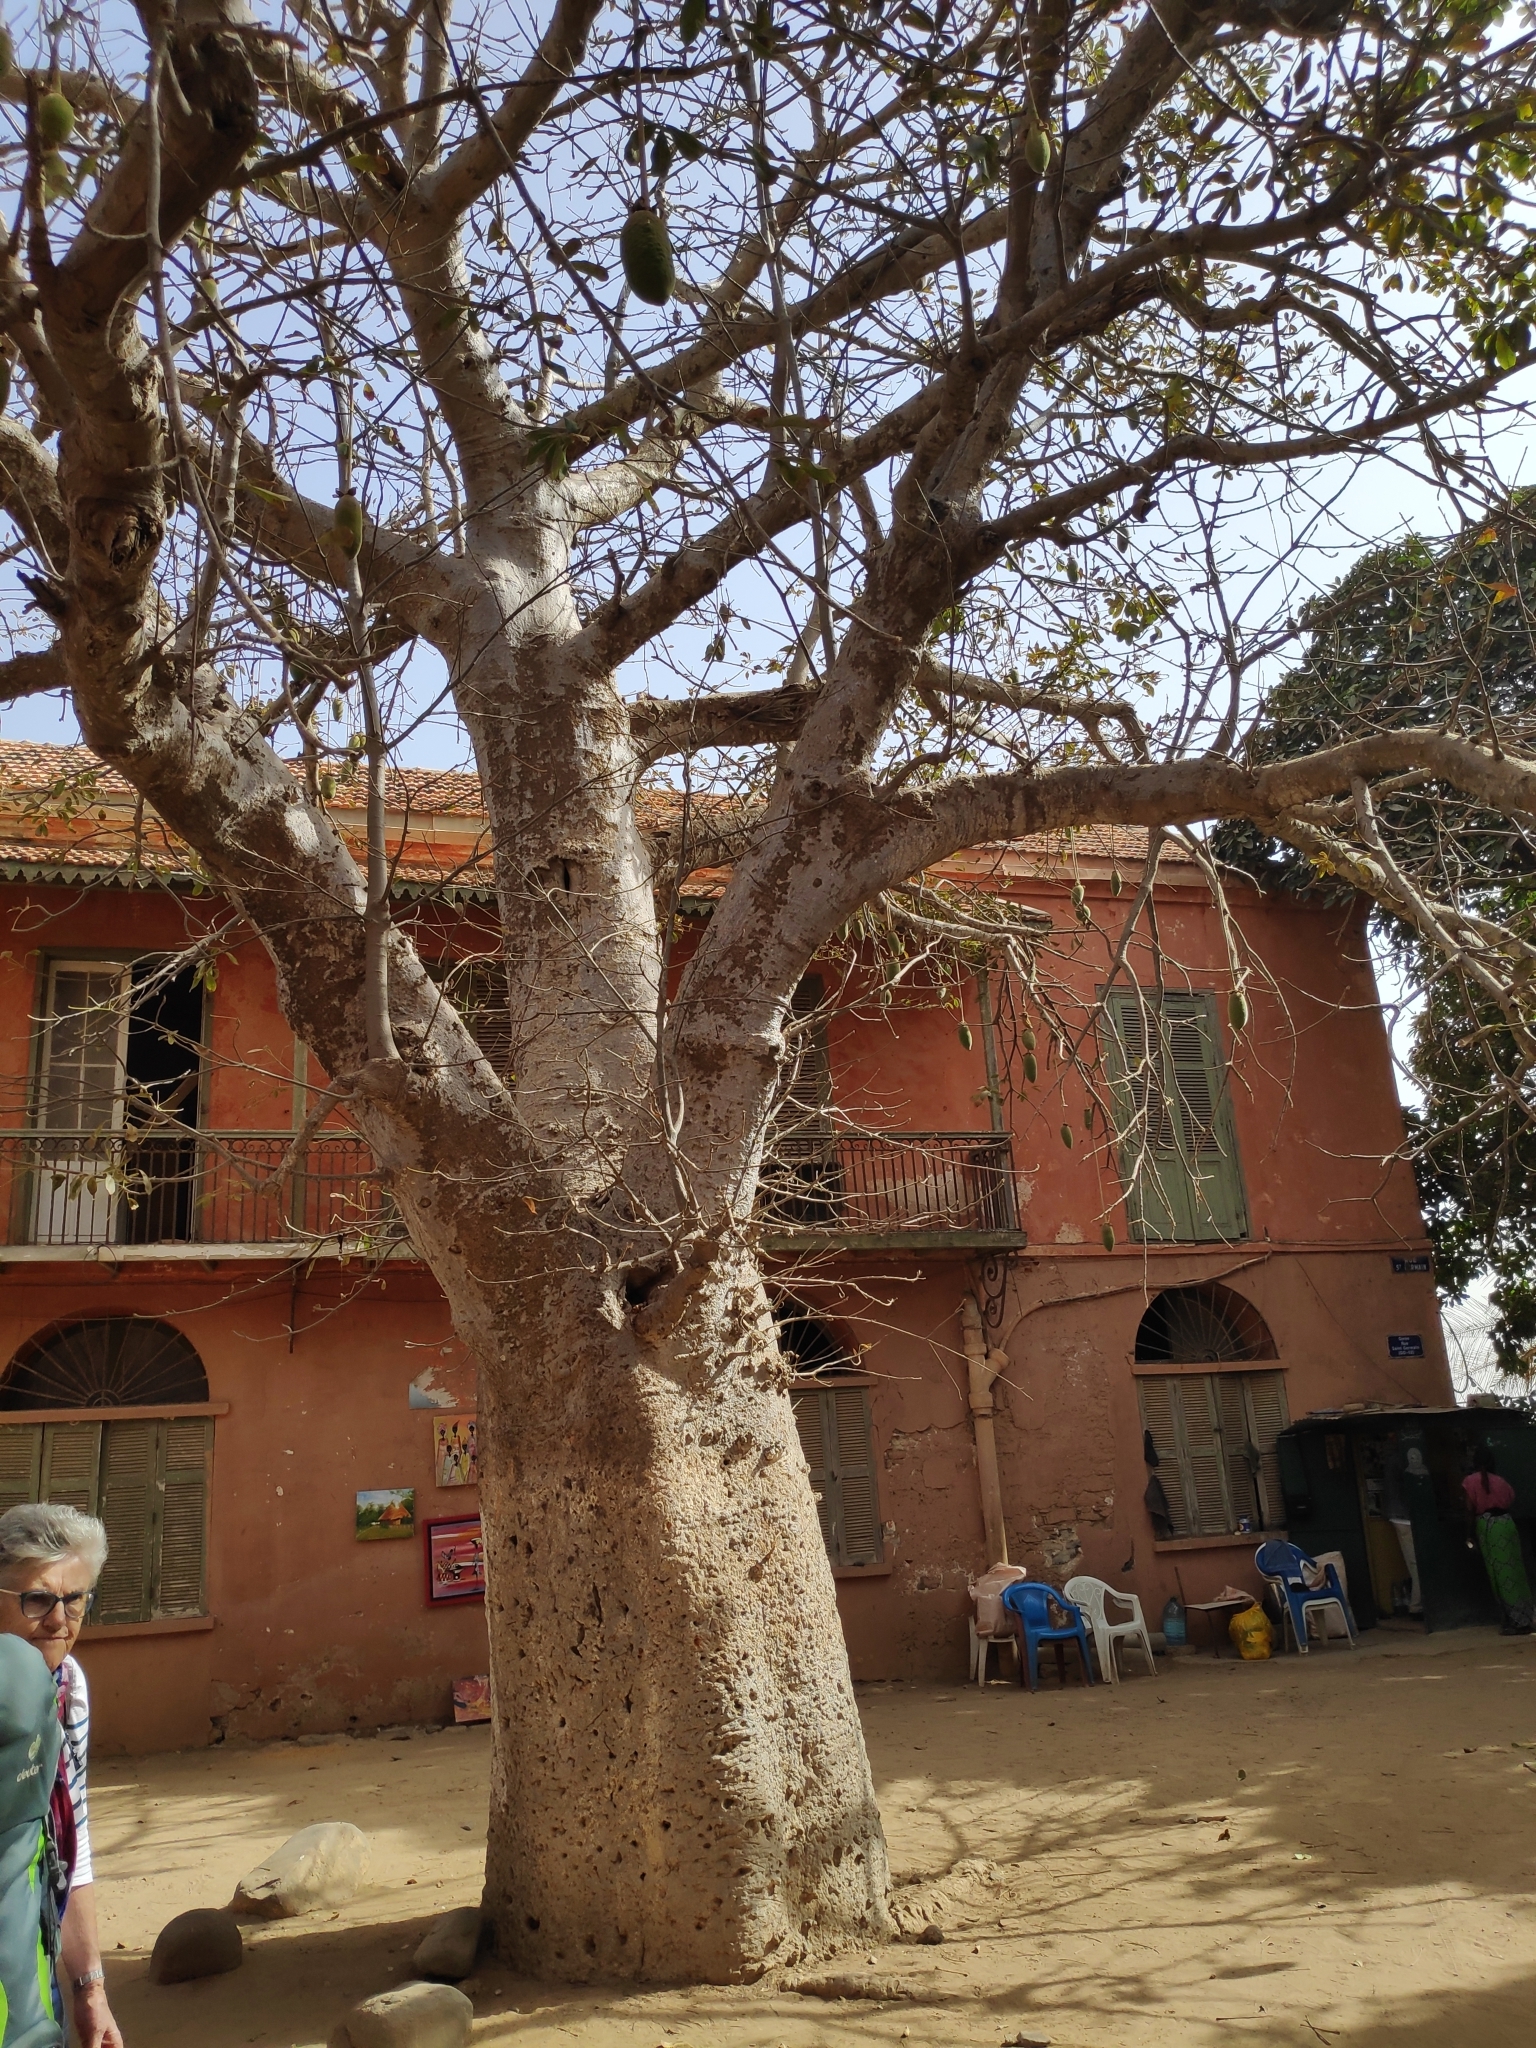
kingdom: Plantae
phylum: Tracheophyta
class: Magnoliopsida
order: Malvales
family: Malvaceae
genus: Adansonia
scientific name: Adansonia digitata
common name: Dead-rat-tree
